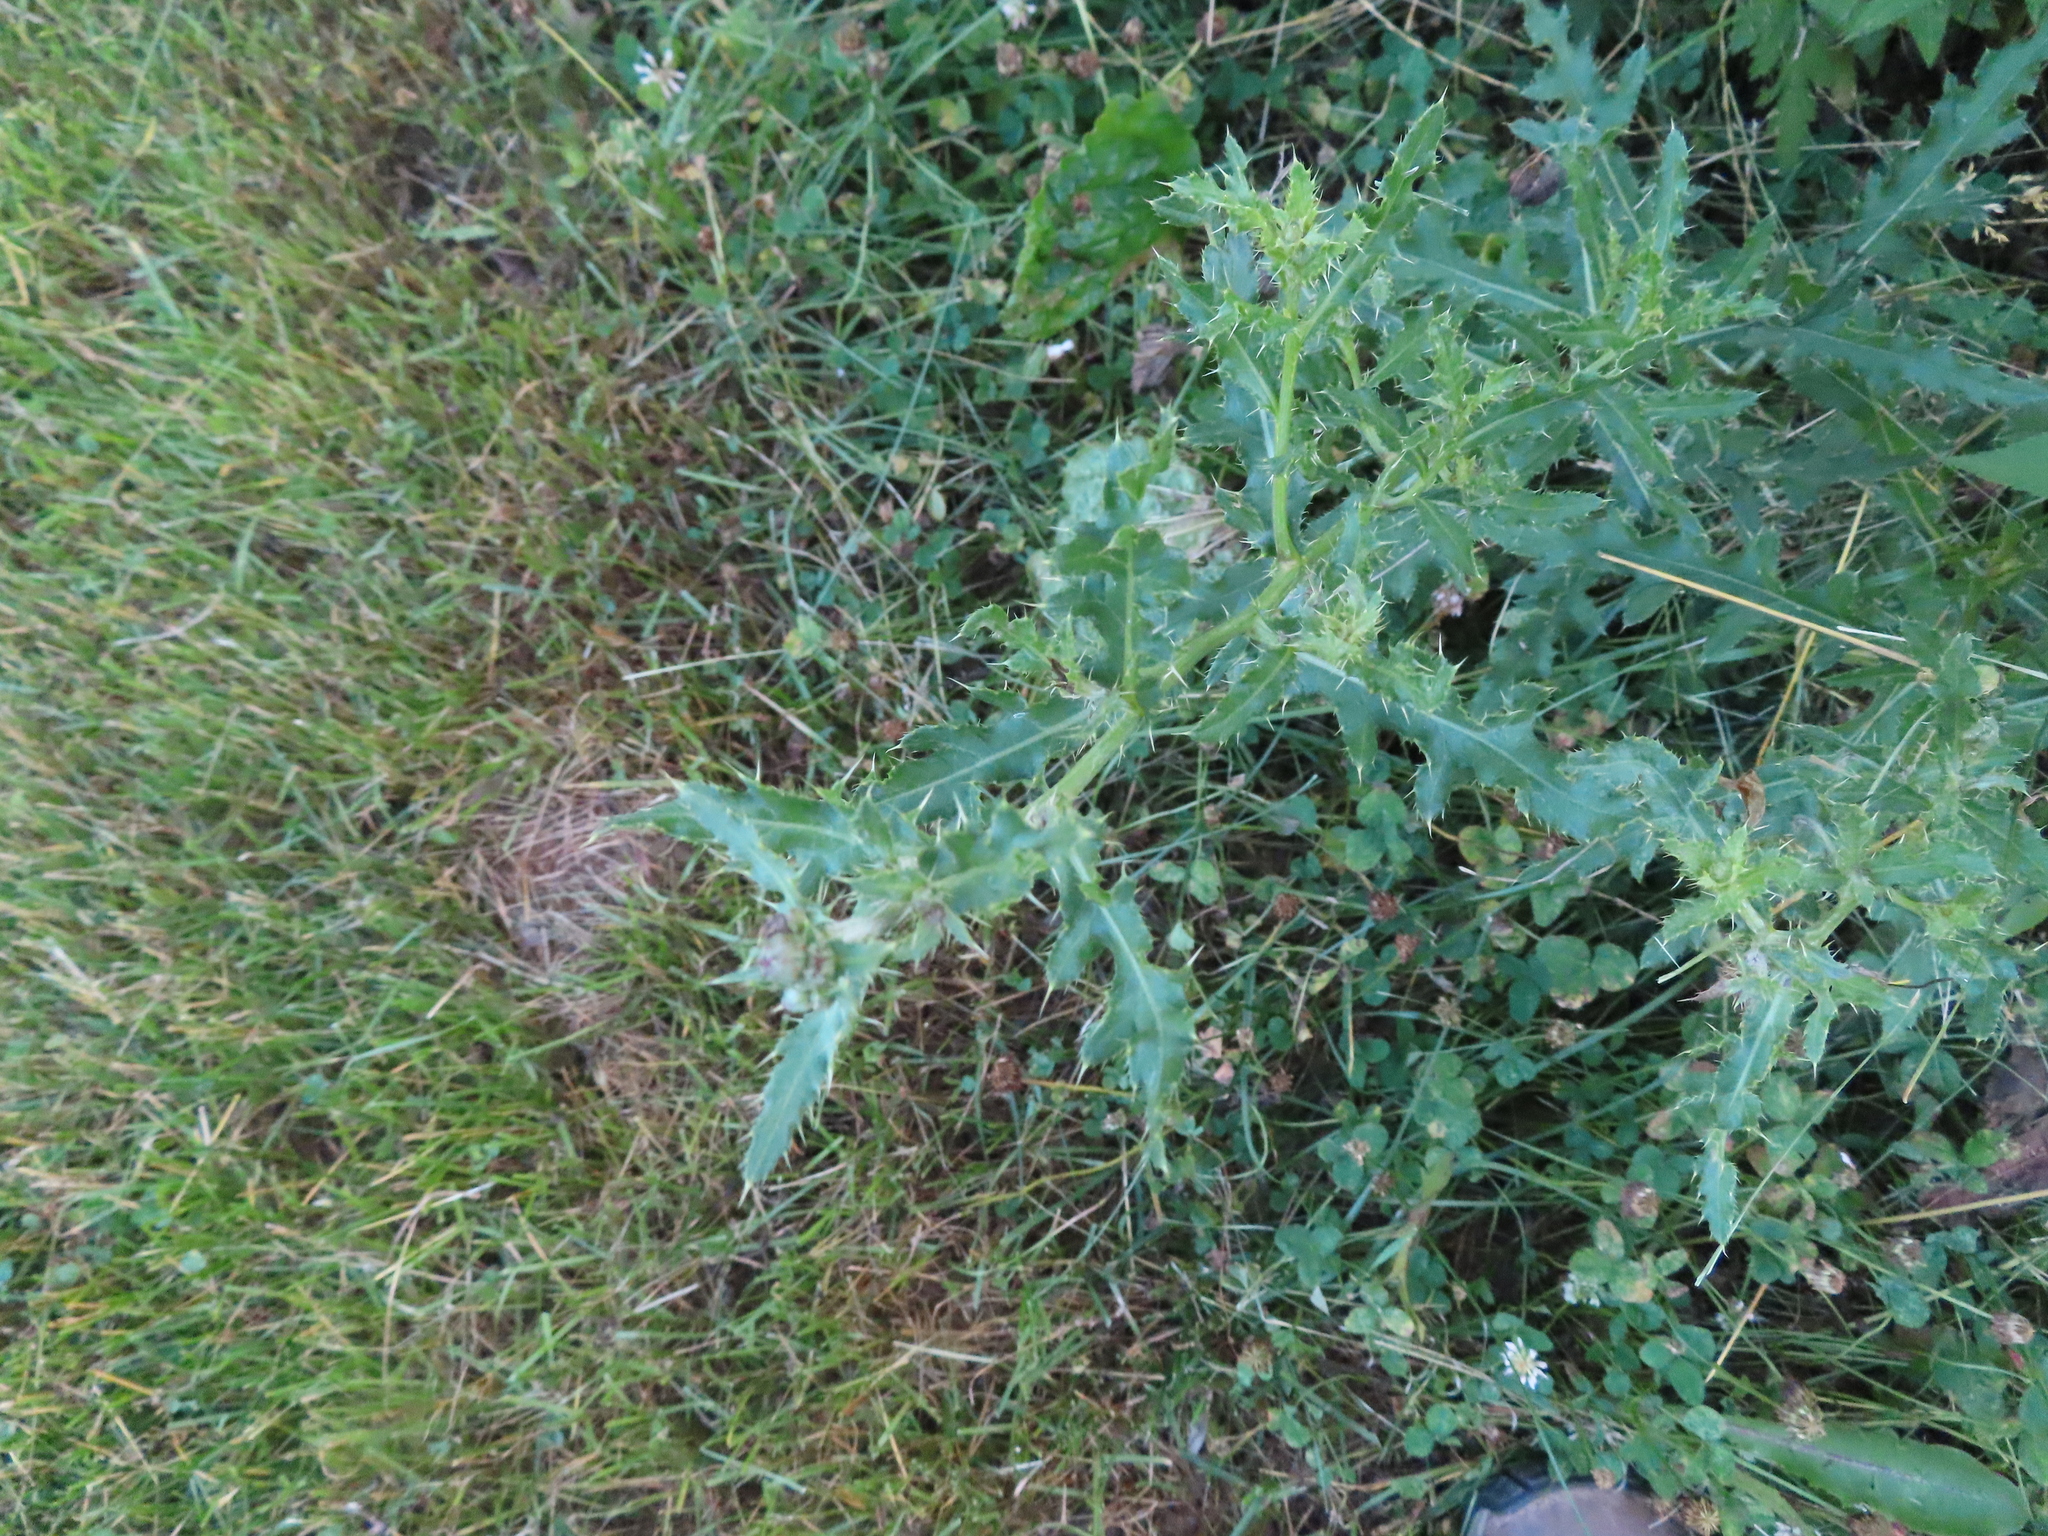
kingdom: Plantae
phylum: Tracheophyta
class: Magnoliopsida
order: Asterales
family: Asteraceae
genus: Cirsium
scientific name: Cirsium arvense
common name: Creeping thistle
